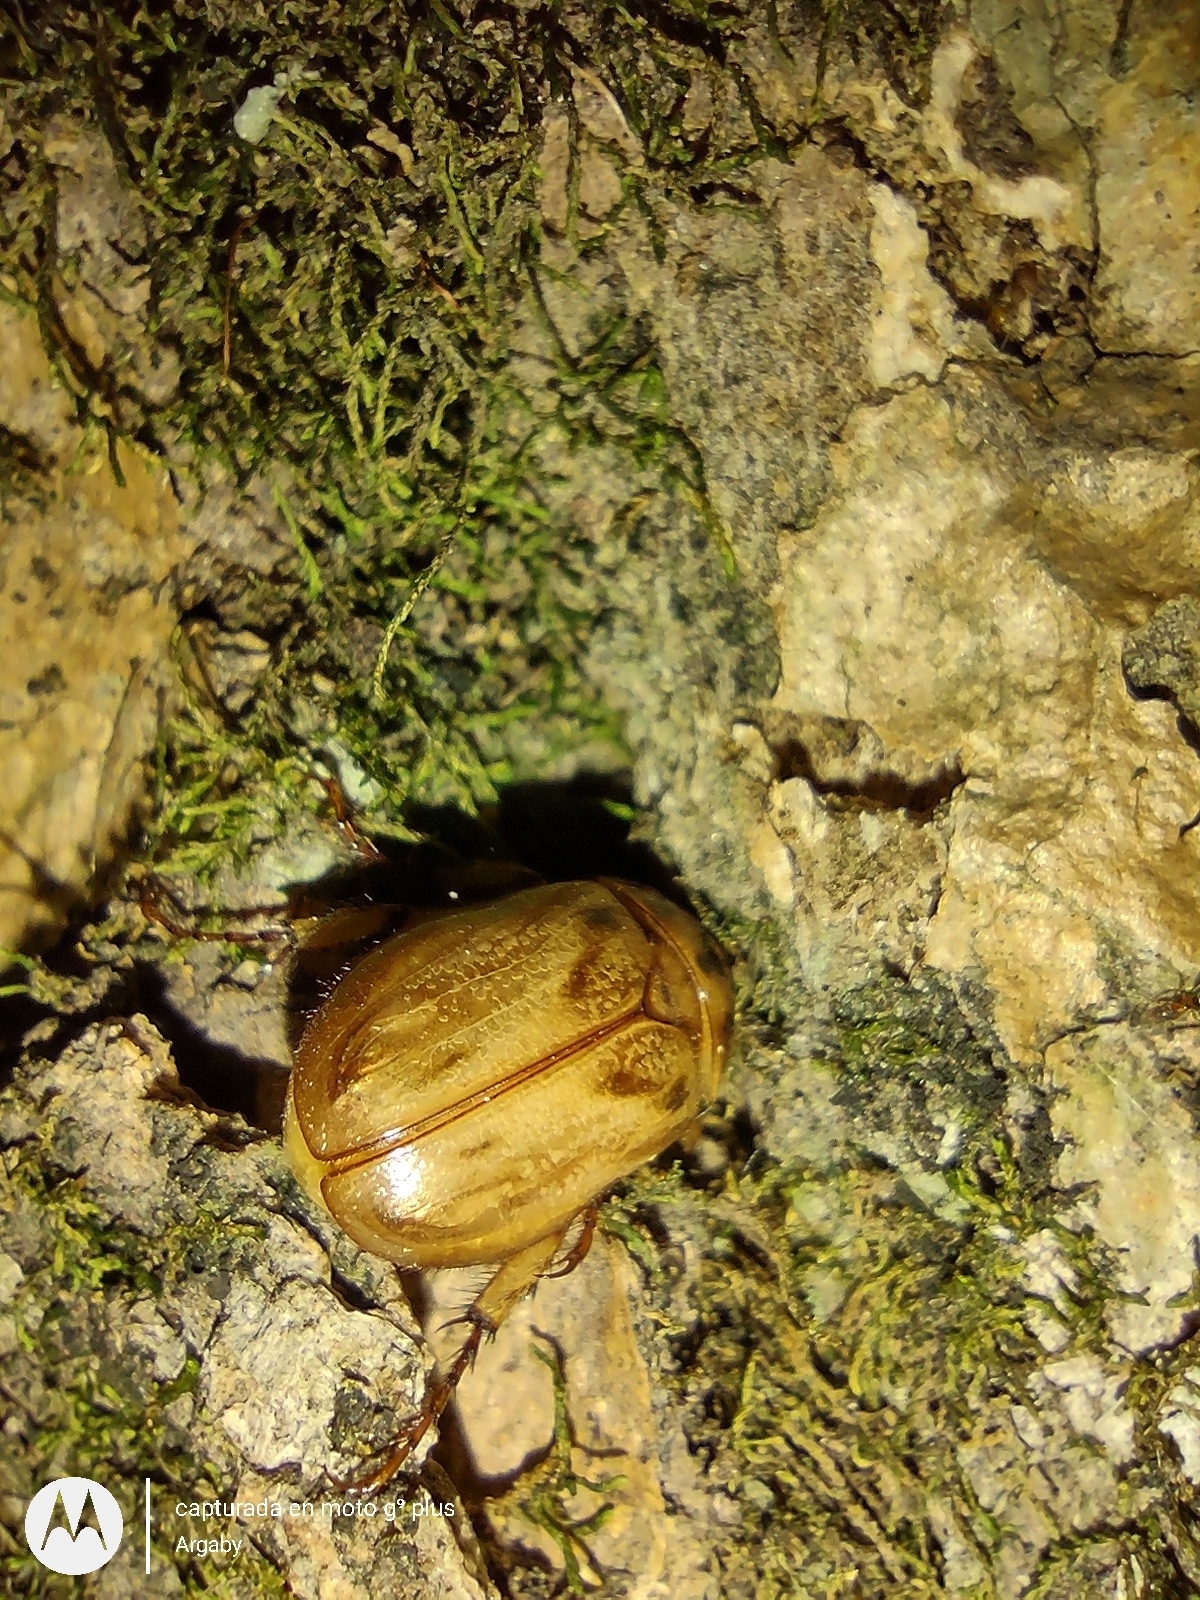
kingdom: Animalia
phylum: Arthropoda
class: Insecta
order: Coleoptera
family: Scarabaeidae
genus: Cyclocephala
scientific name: Cyclocephala signaticollis
